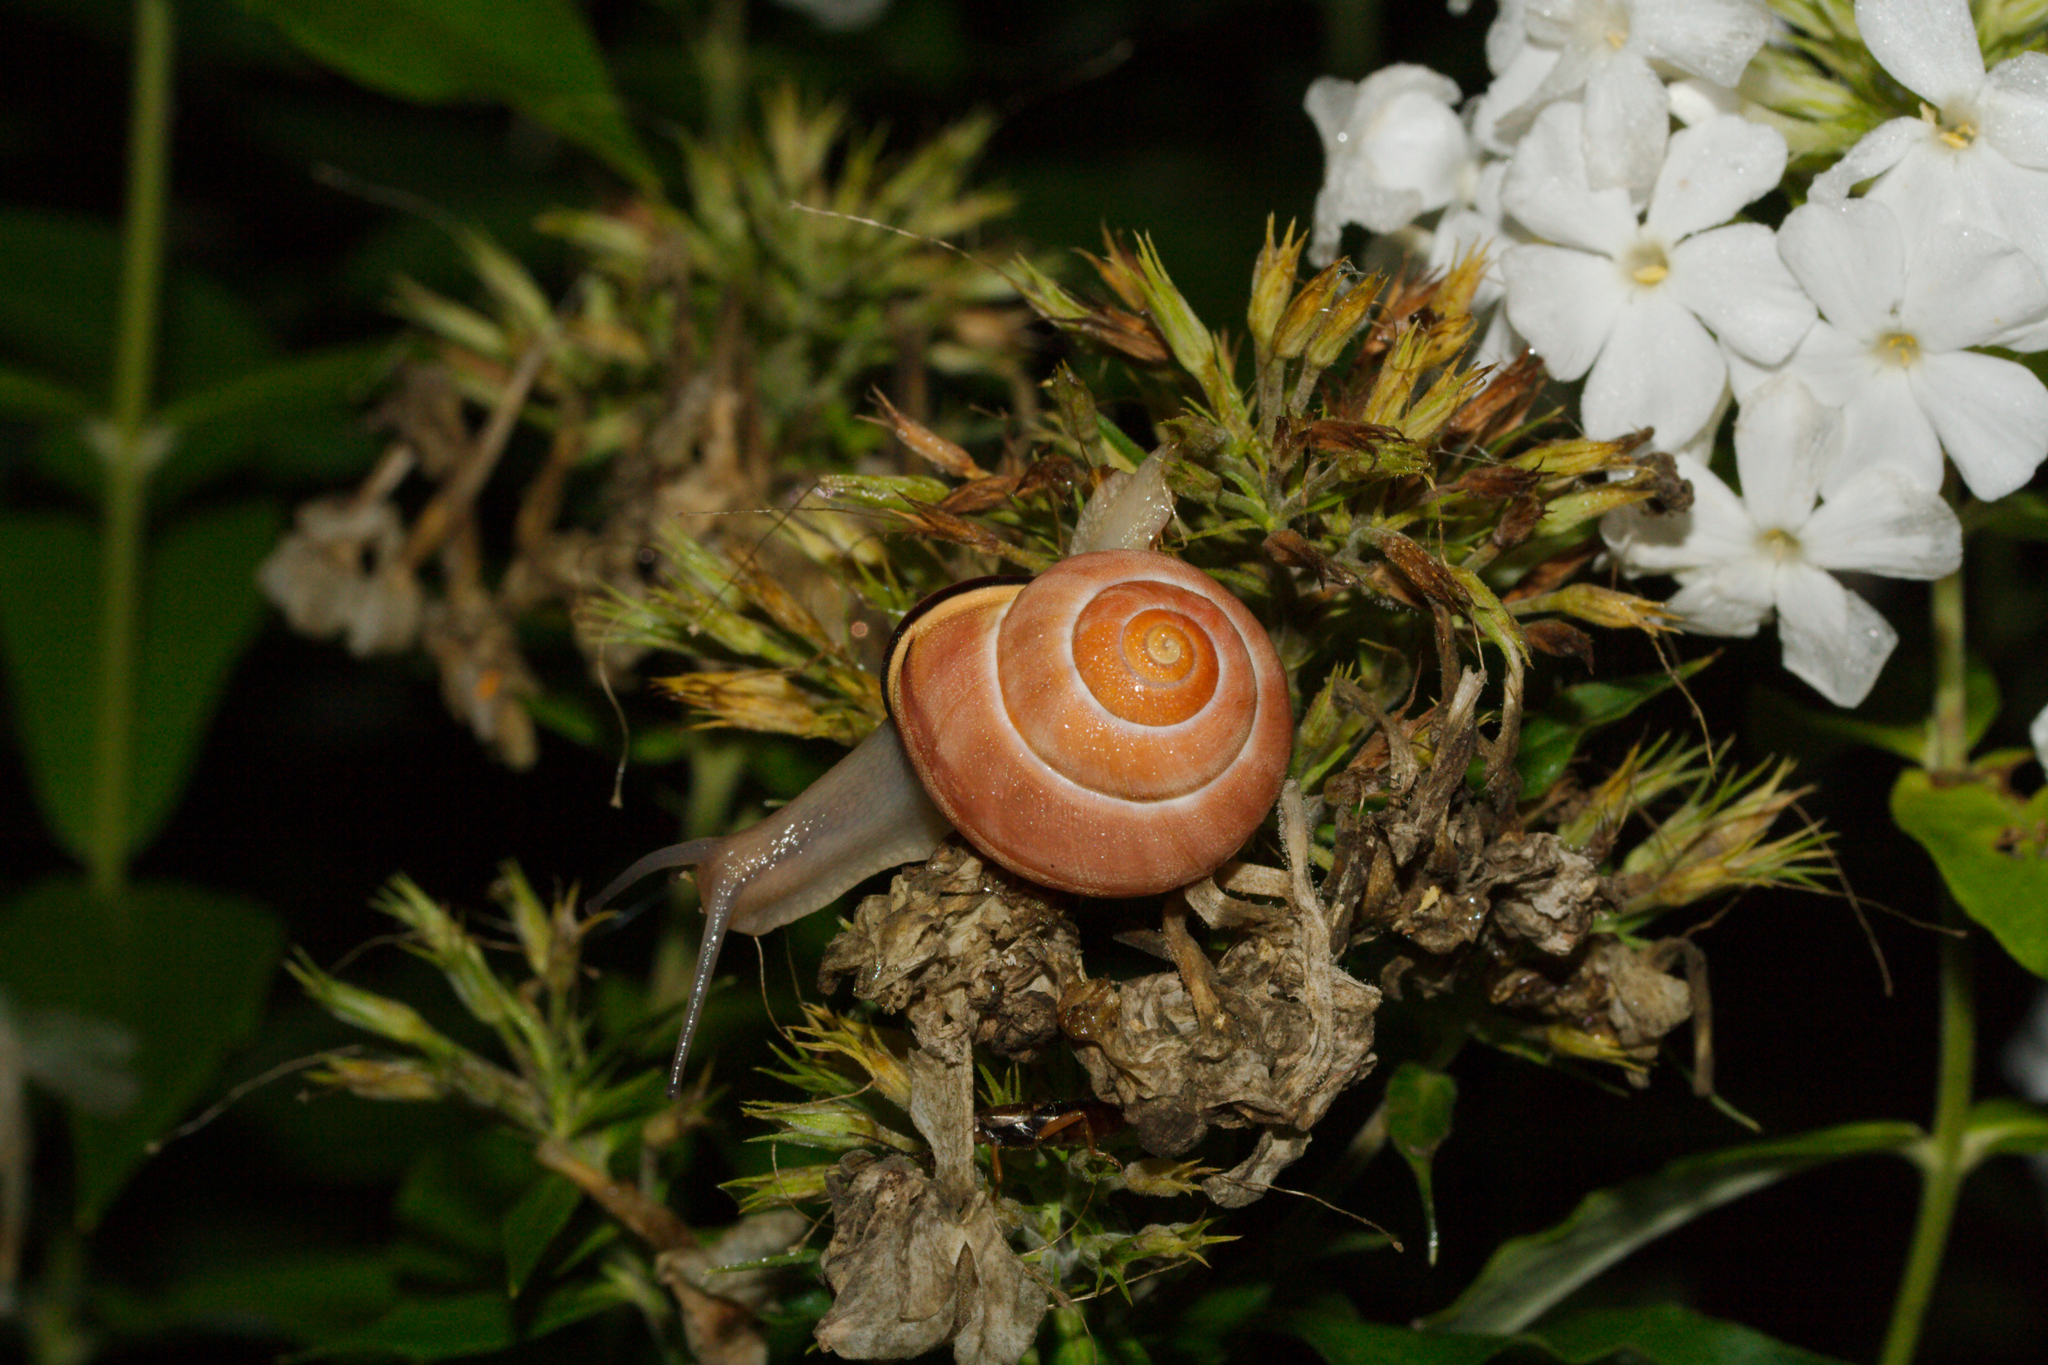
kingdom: Animalia
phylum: Mollusca
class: Gastropoda
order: Stylommatophora
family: Helicidae
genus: Cepaea
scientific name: Cepaea nemoralis
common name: Grovesnail
